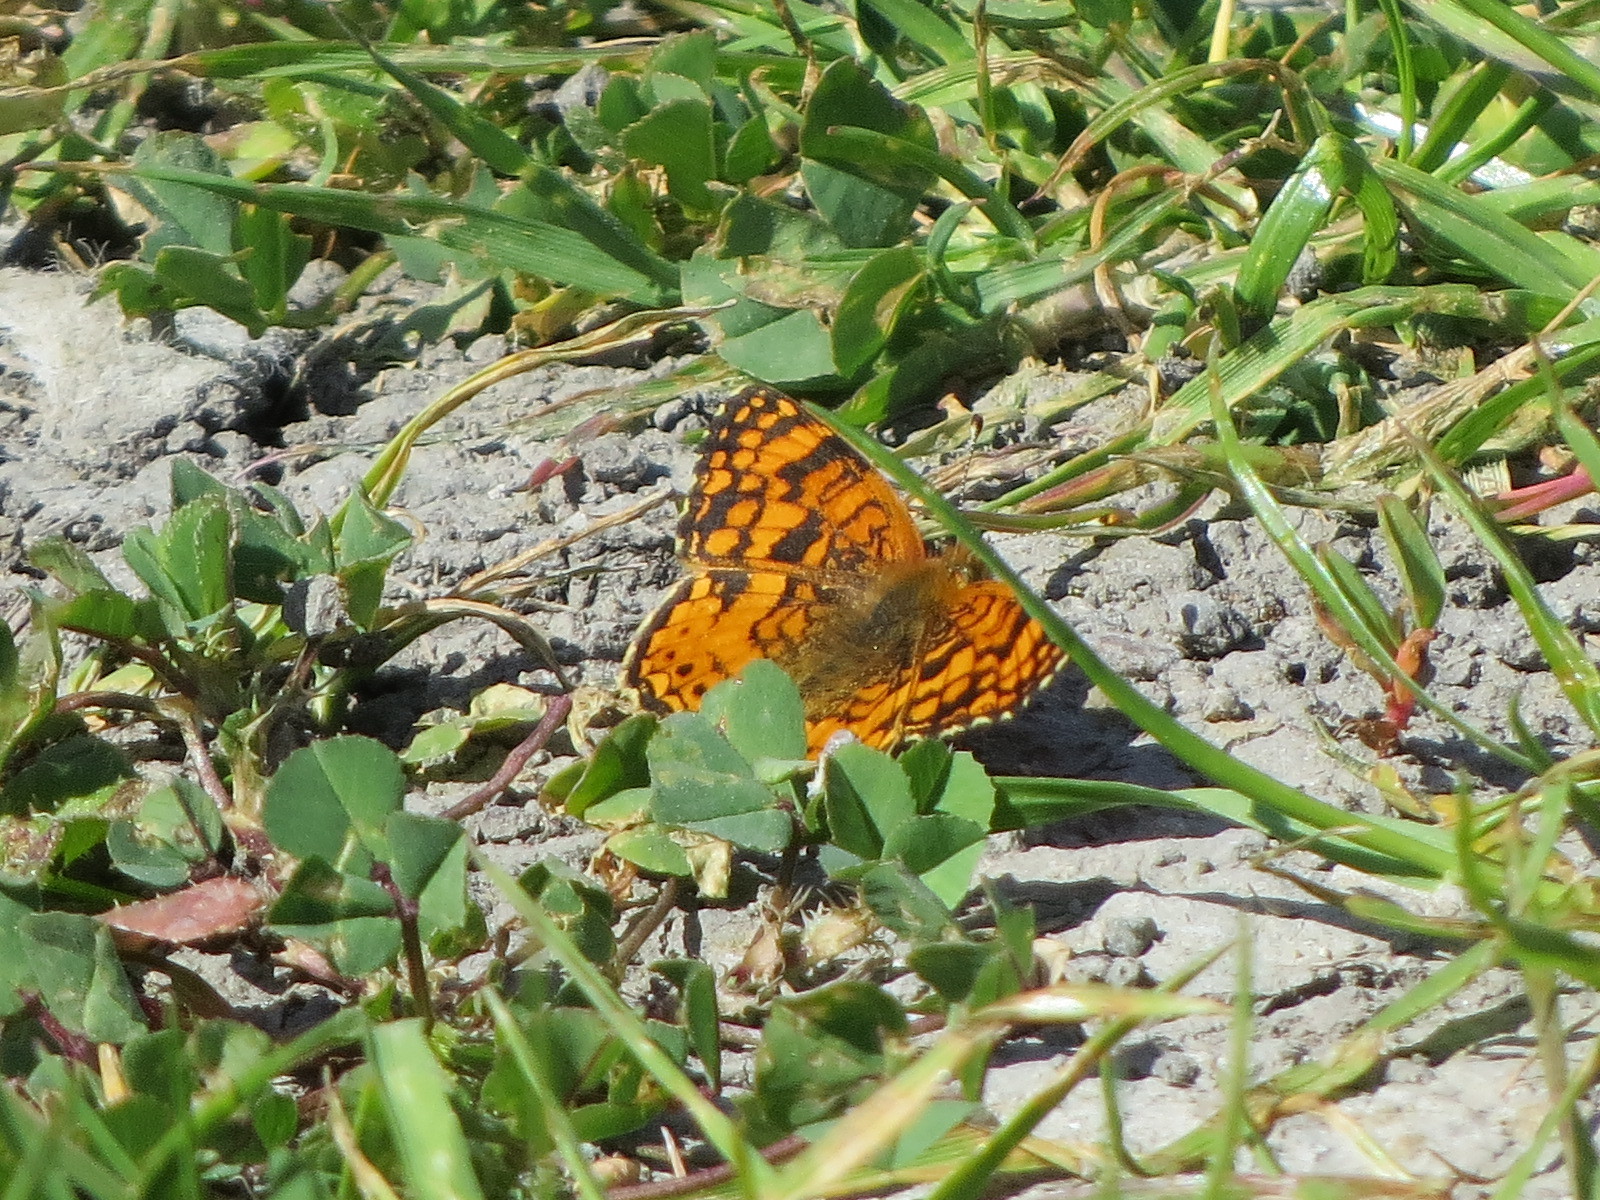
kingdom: Animalia
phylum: Arthropoda
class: Insecta
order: Lepidoptera
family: Nymphalidae
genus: Eresia
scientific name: Eresia aveyrona
